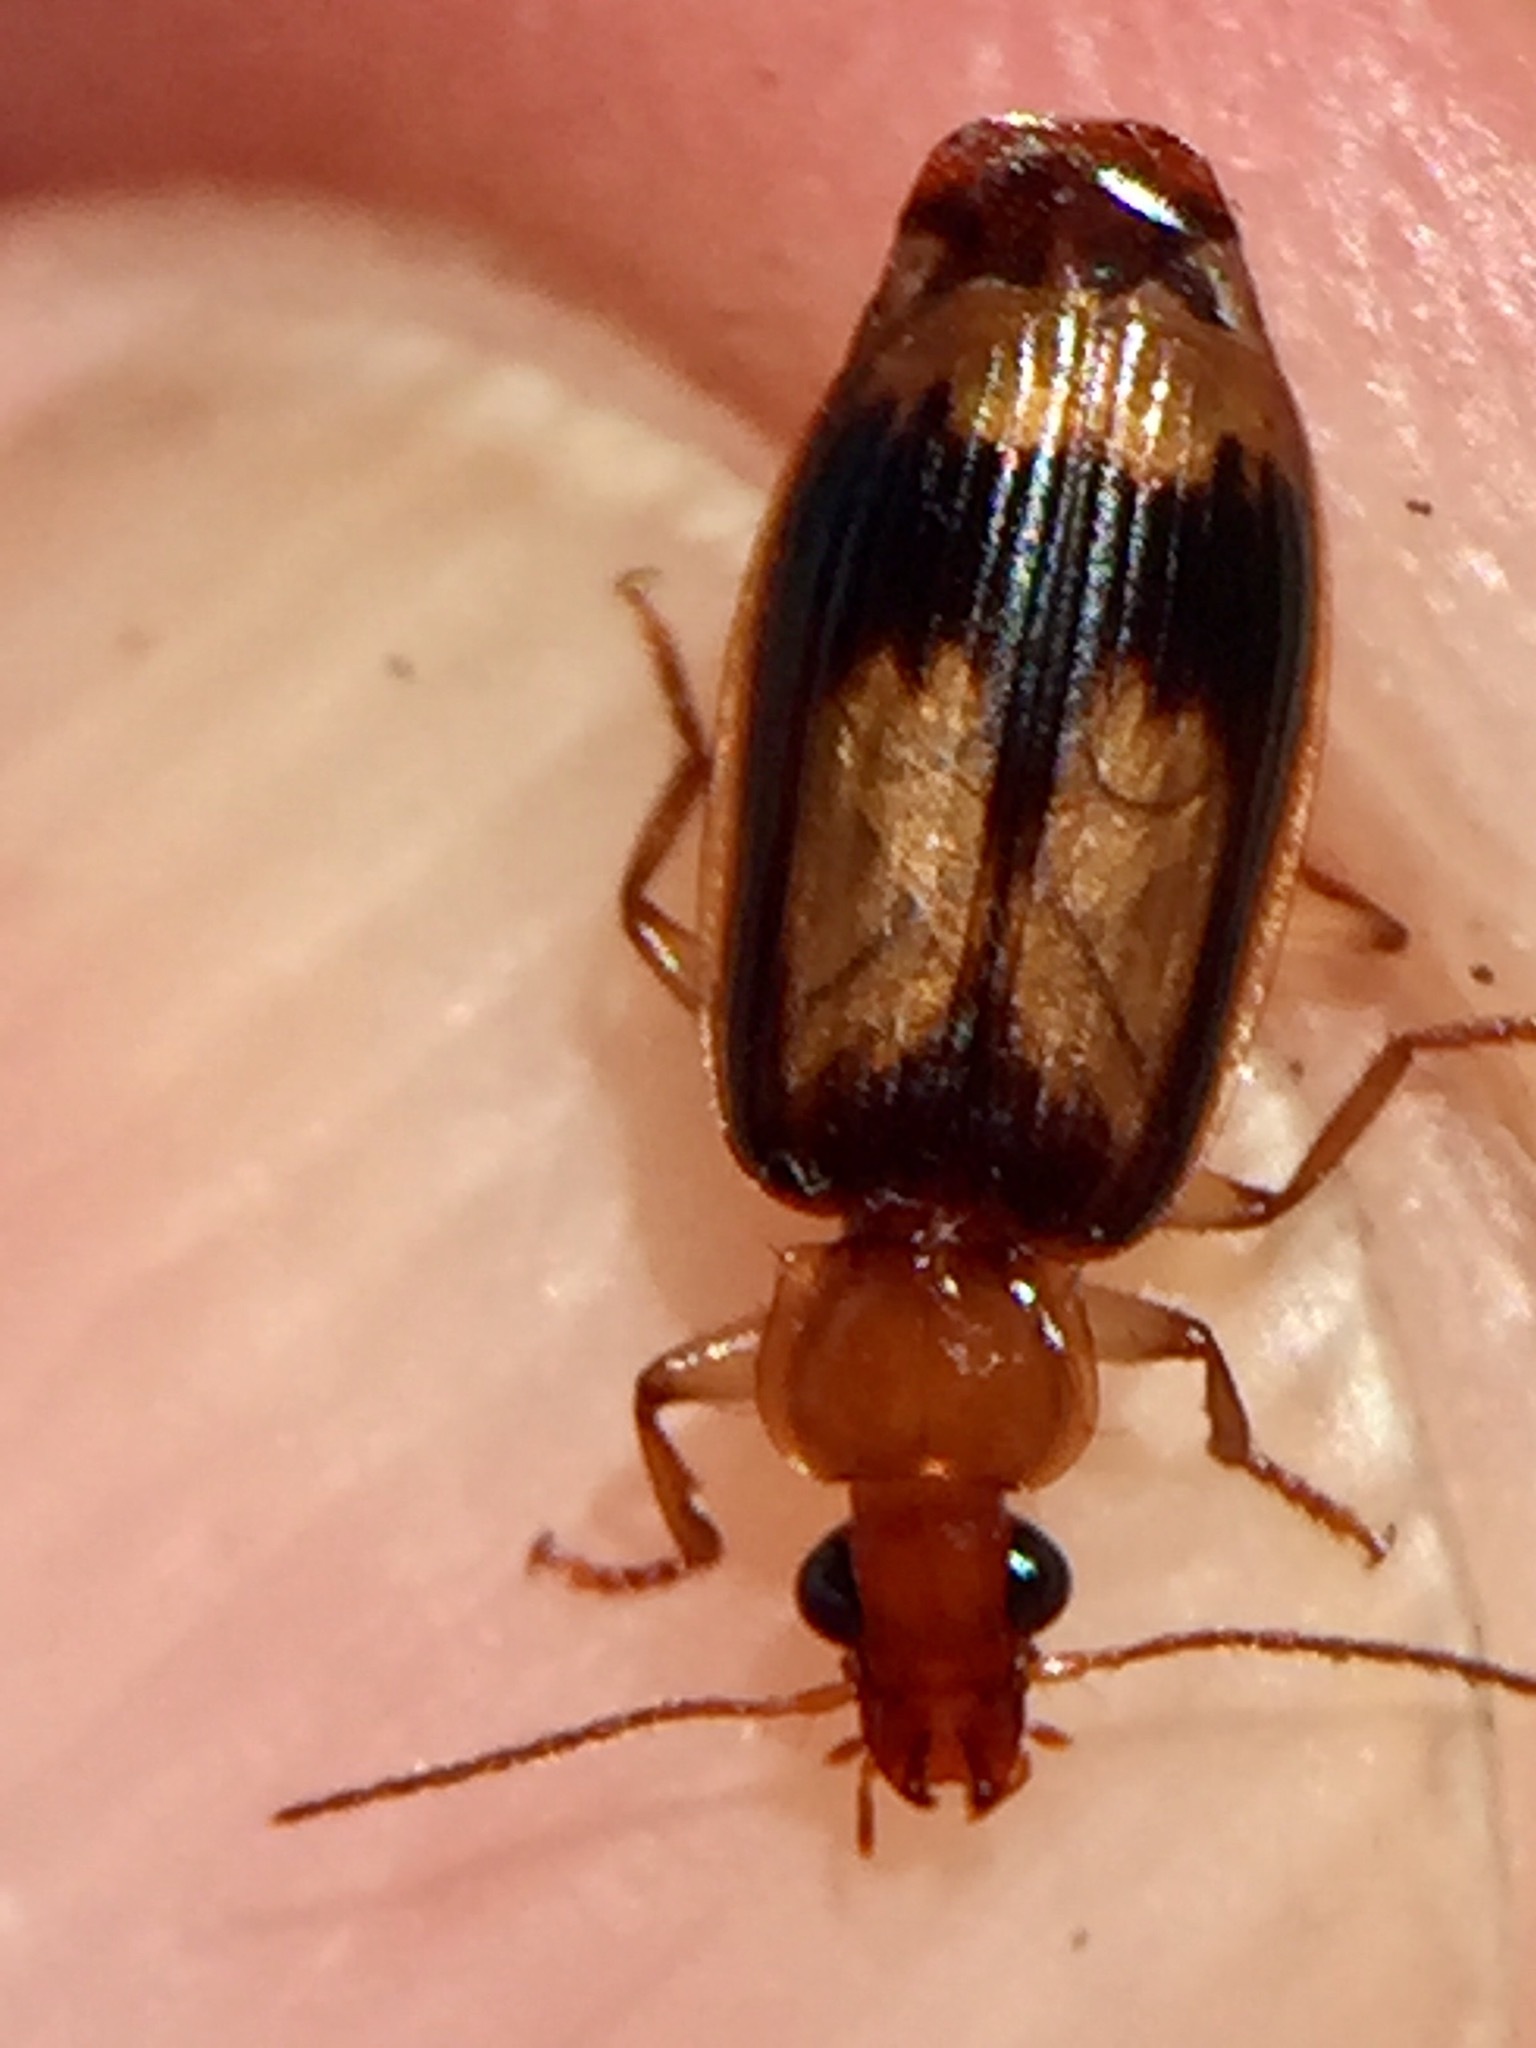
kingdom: Animalia
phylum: Arthropoda
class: Insecta
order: Coleoptera
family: Carabidae
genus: Trigonothops
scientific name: Trigonothops pacificus
